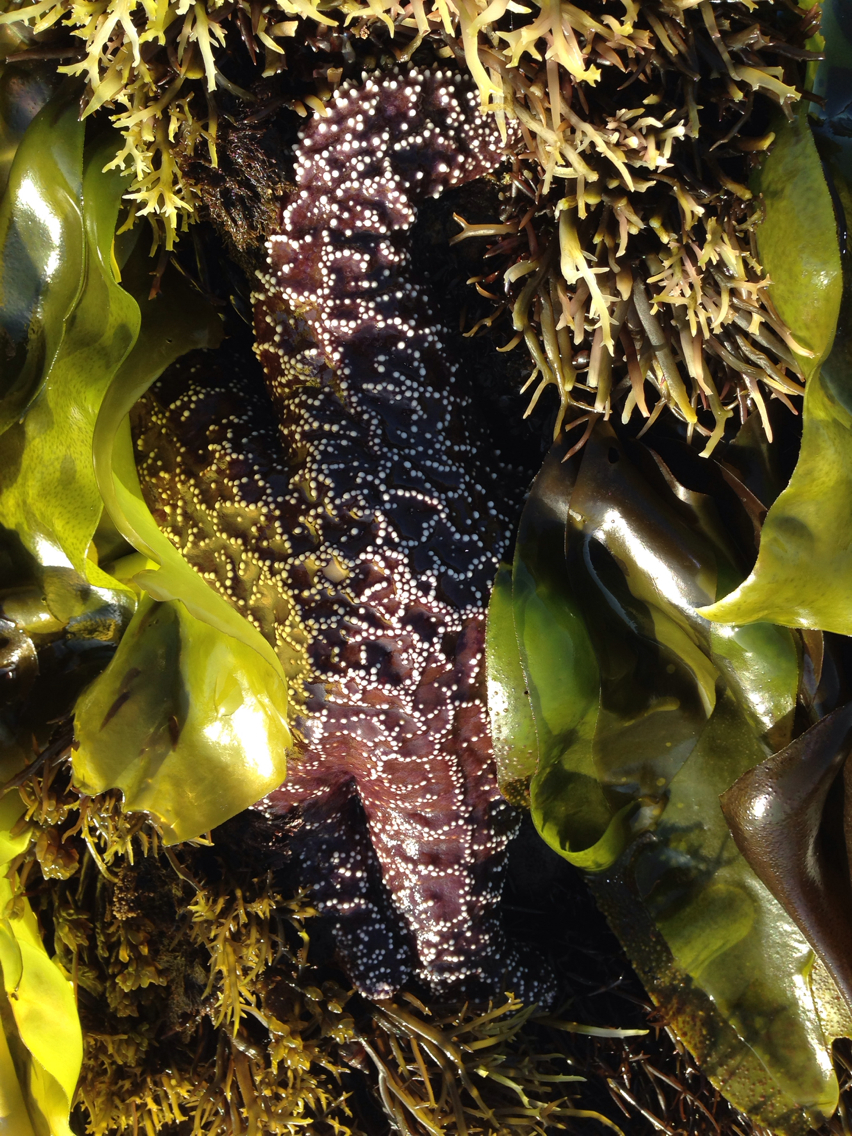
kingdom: Animalia
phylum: Echinodermata
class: Asteroidea
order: Forcipulatida
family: Asteriidae
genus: Pisaster
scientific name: Pisaster ochraceus
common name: Ochre stars
